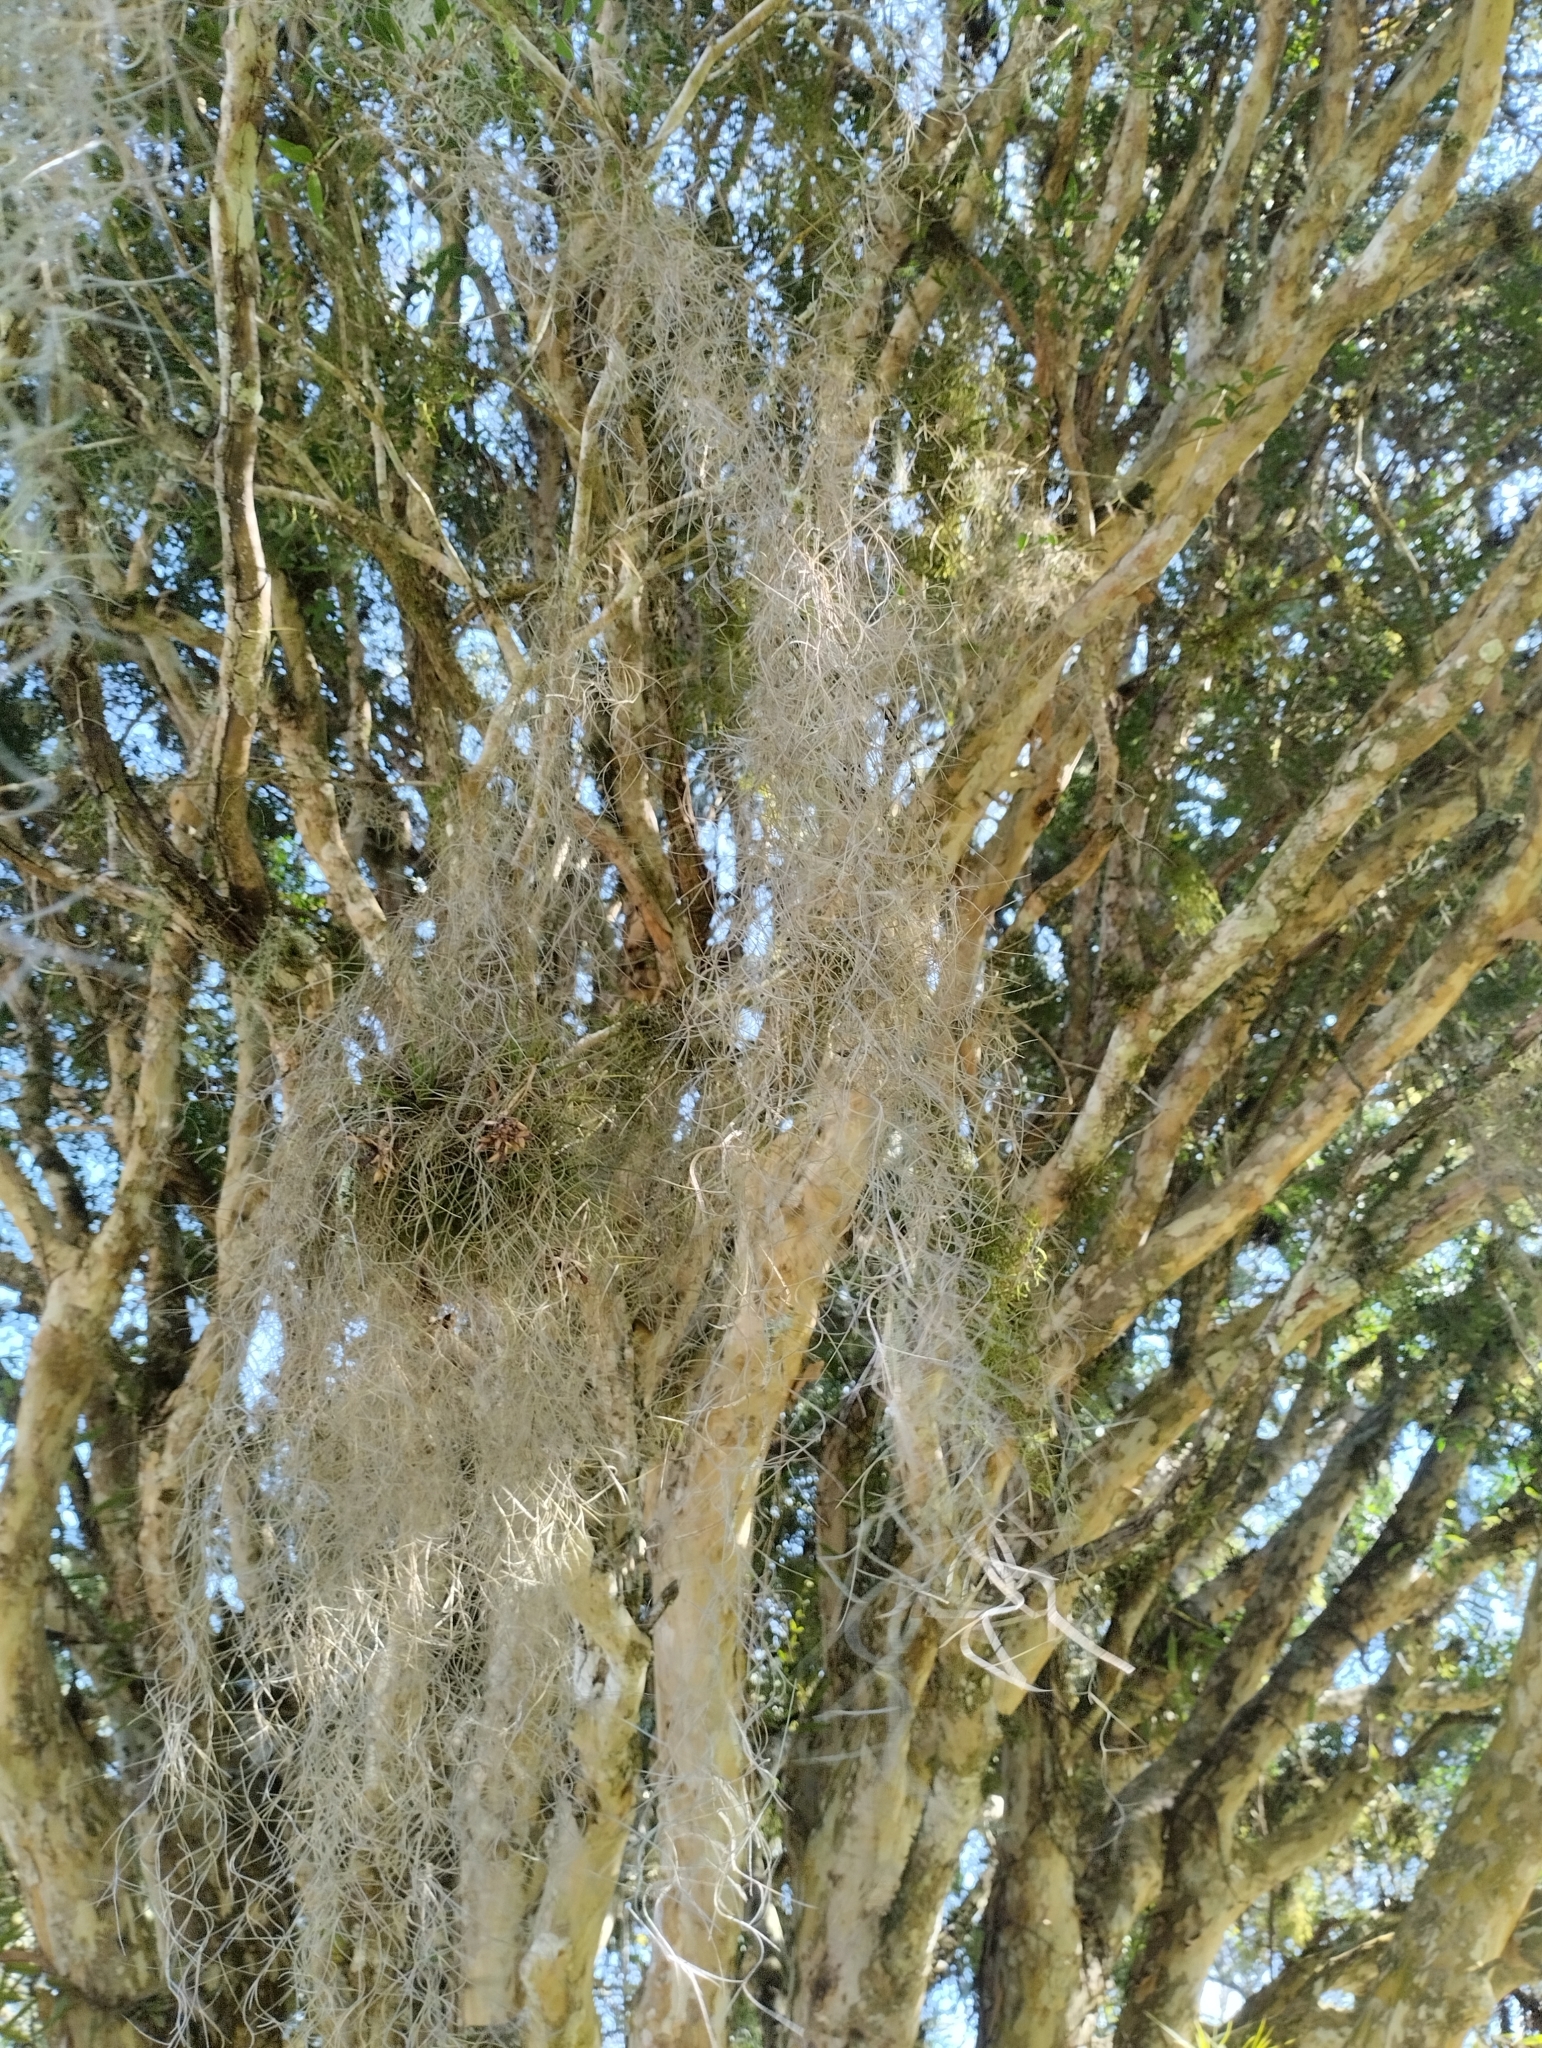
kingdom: Plantae
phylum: Tracheophyta
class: Liliopsida
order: Poales
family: Bromeliaceae
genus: Tillandsia
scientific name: Tillandsia usneoides
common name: Spanish moss
